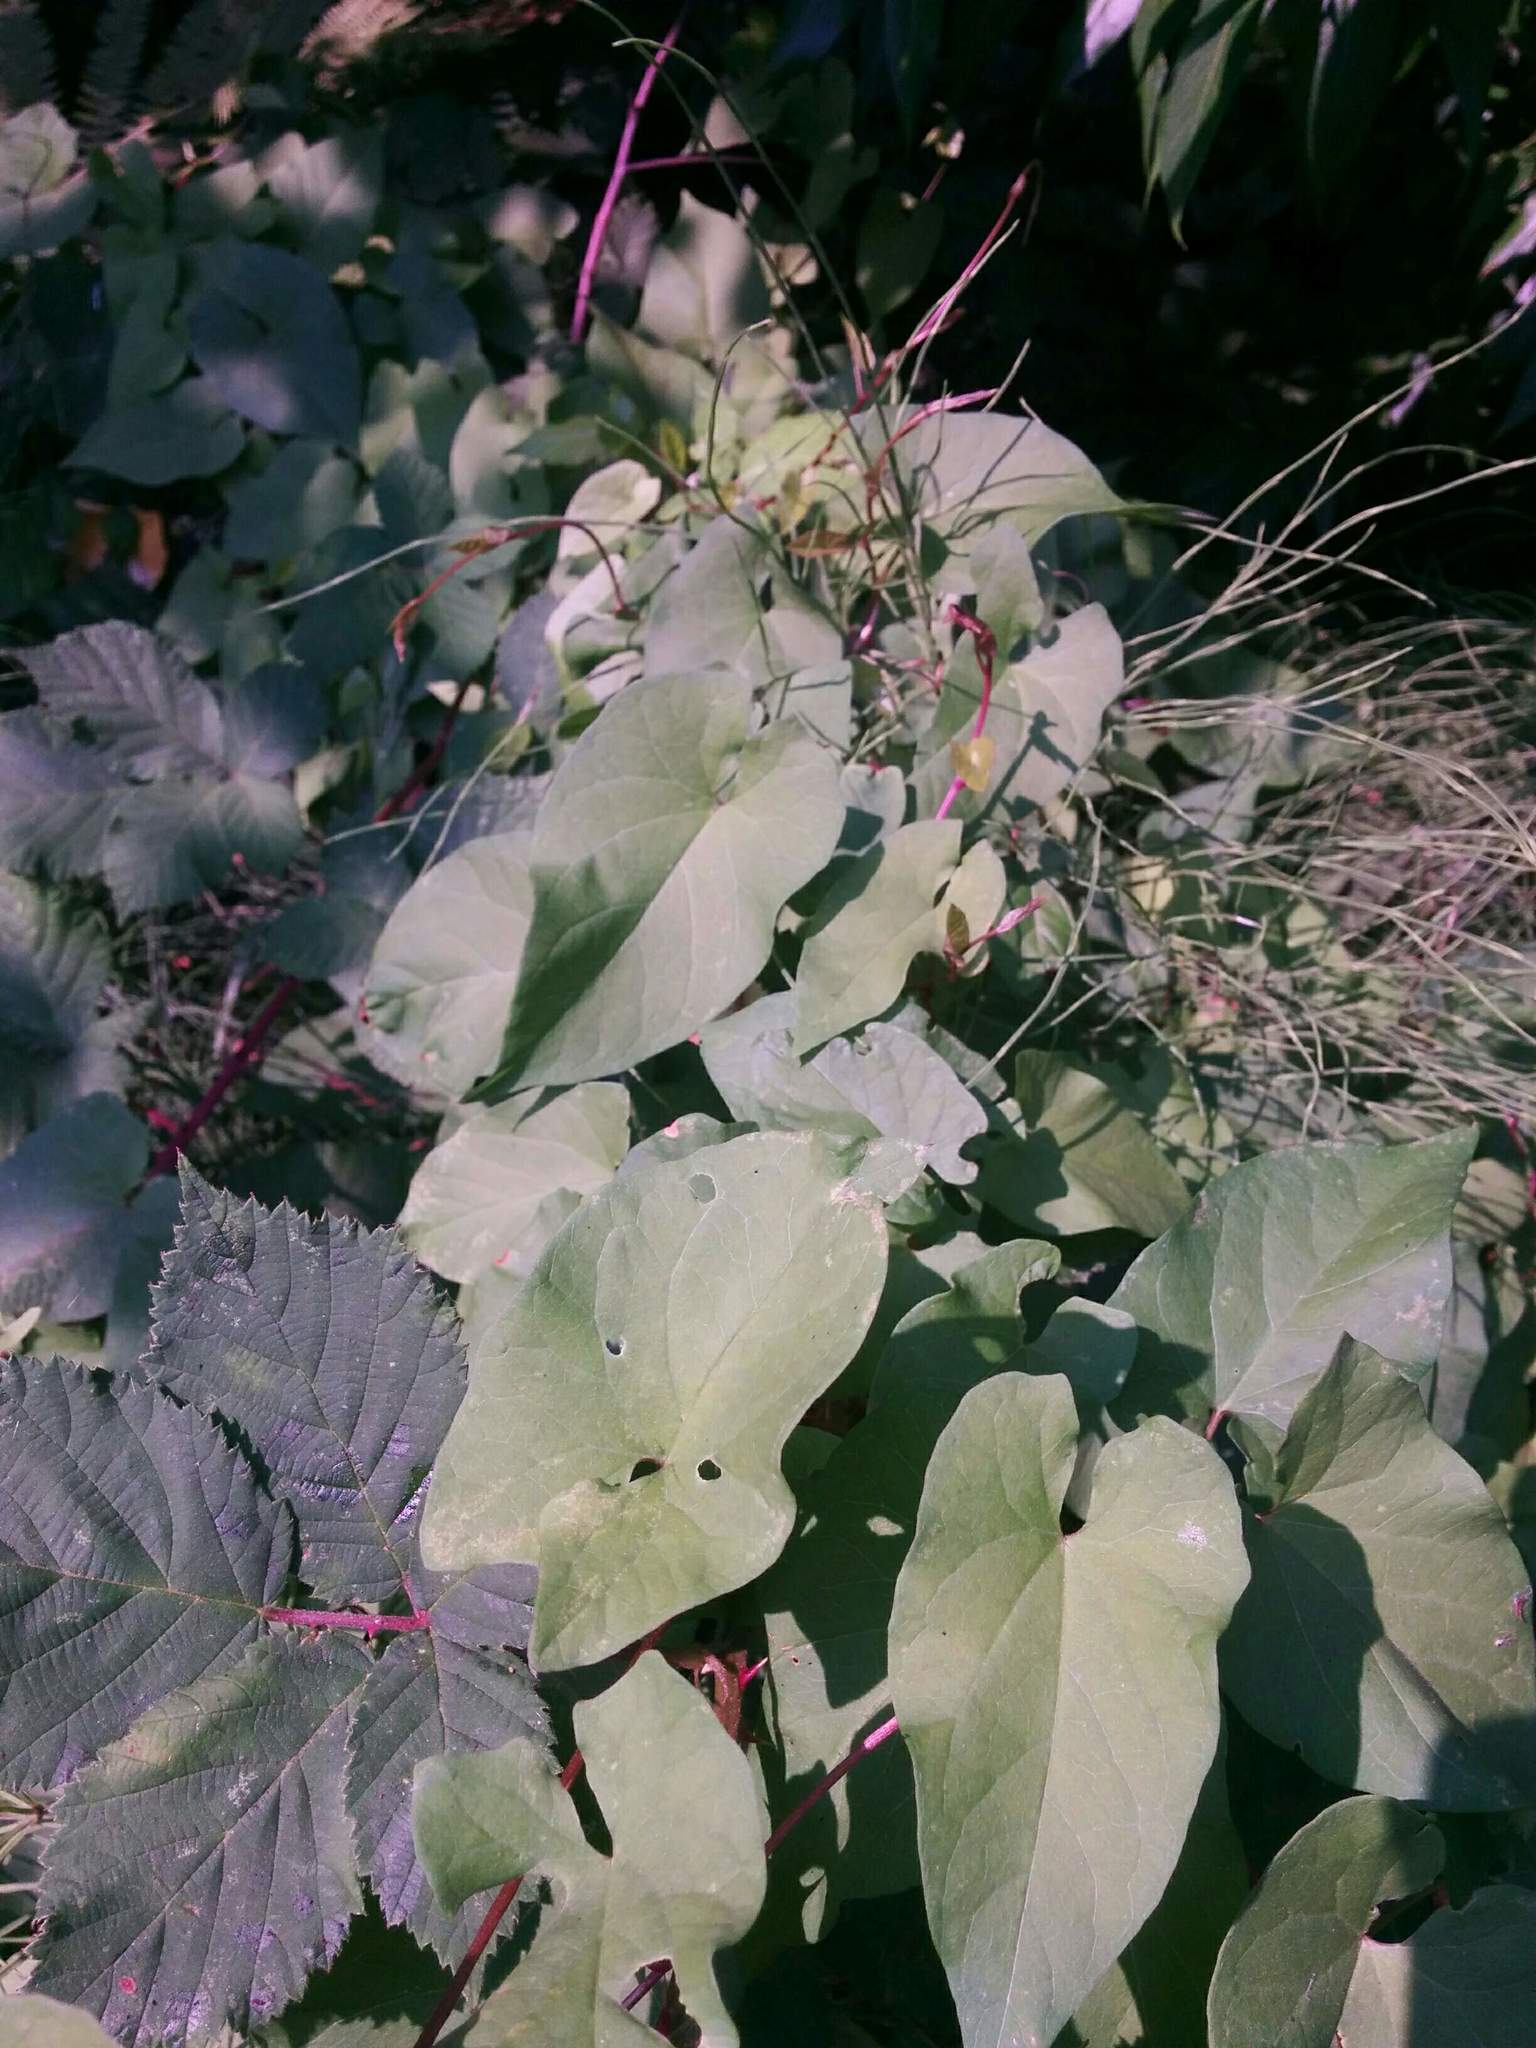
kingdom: Plantae
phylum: Tracheophyta
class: Magnoliopsida
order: Solanales
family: Convolvulaceae
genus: Calystegia
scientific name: Calystegia sepium
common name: Hedge bindweed
